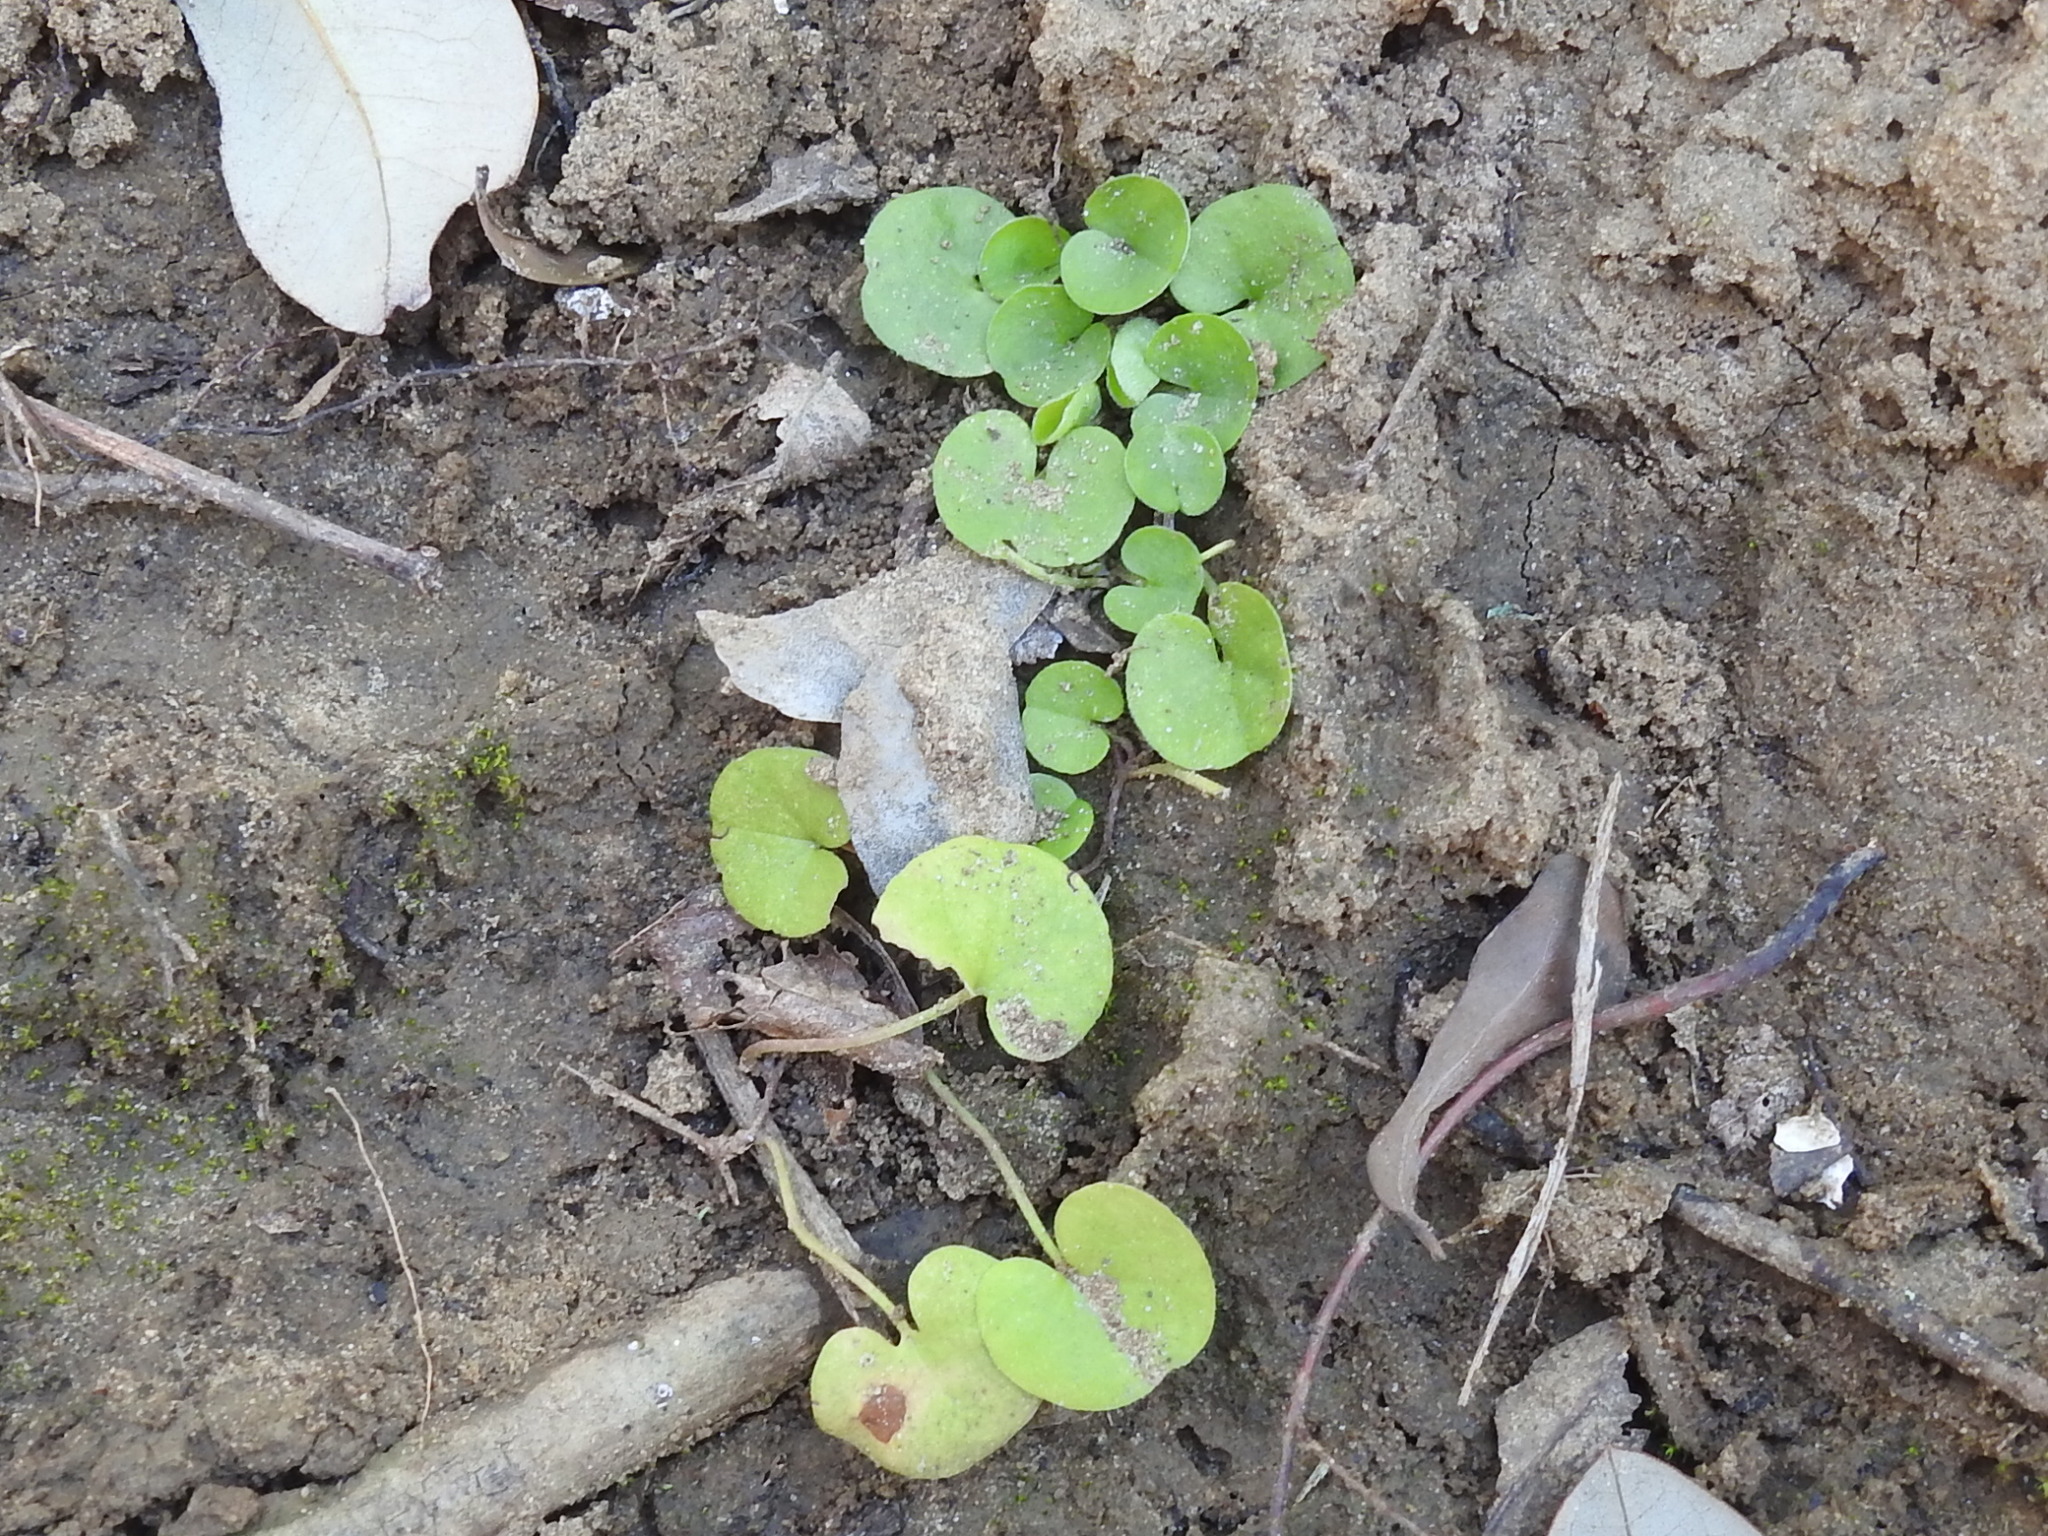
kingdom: Plantae
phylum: Tracheophyta
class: Magnoliopsida
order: Solanales
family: Convolvulaceae
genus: Dichondra
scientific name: Dichondra carolinensis
